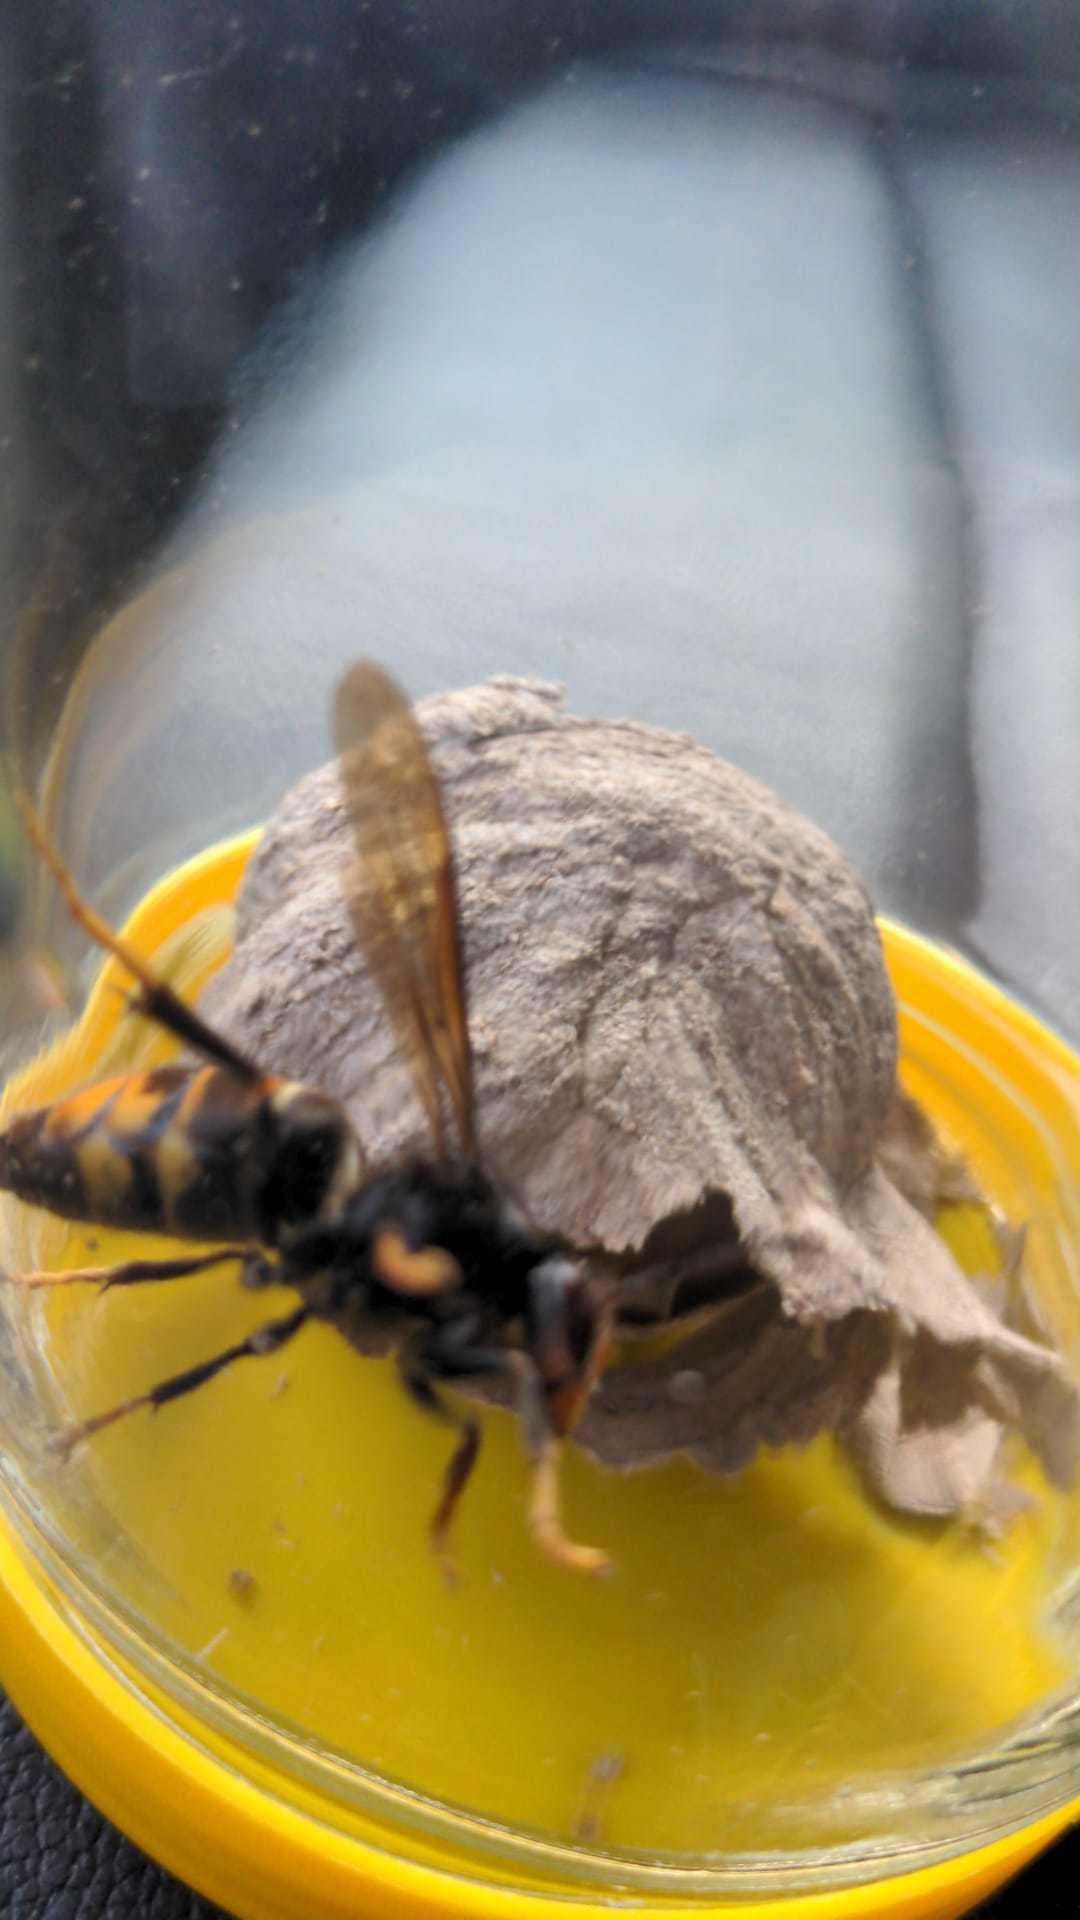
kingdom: Animalia
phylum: Arthropoda
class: Insecta
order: Hymenoptera
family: Vespidae
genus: Vespa
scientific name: Vespa velutina
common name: Asian hornet
